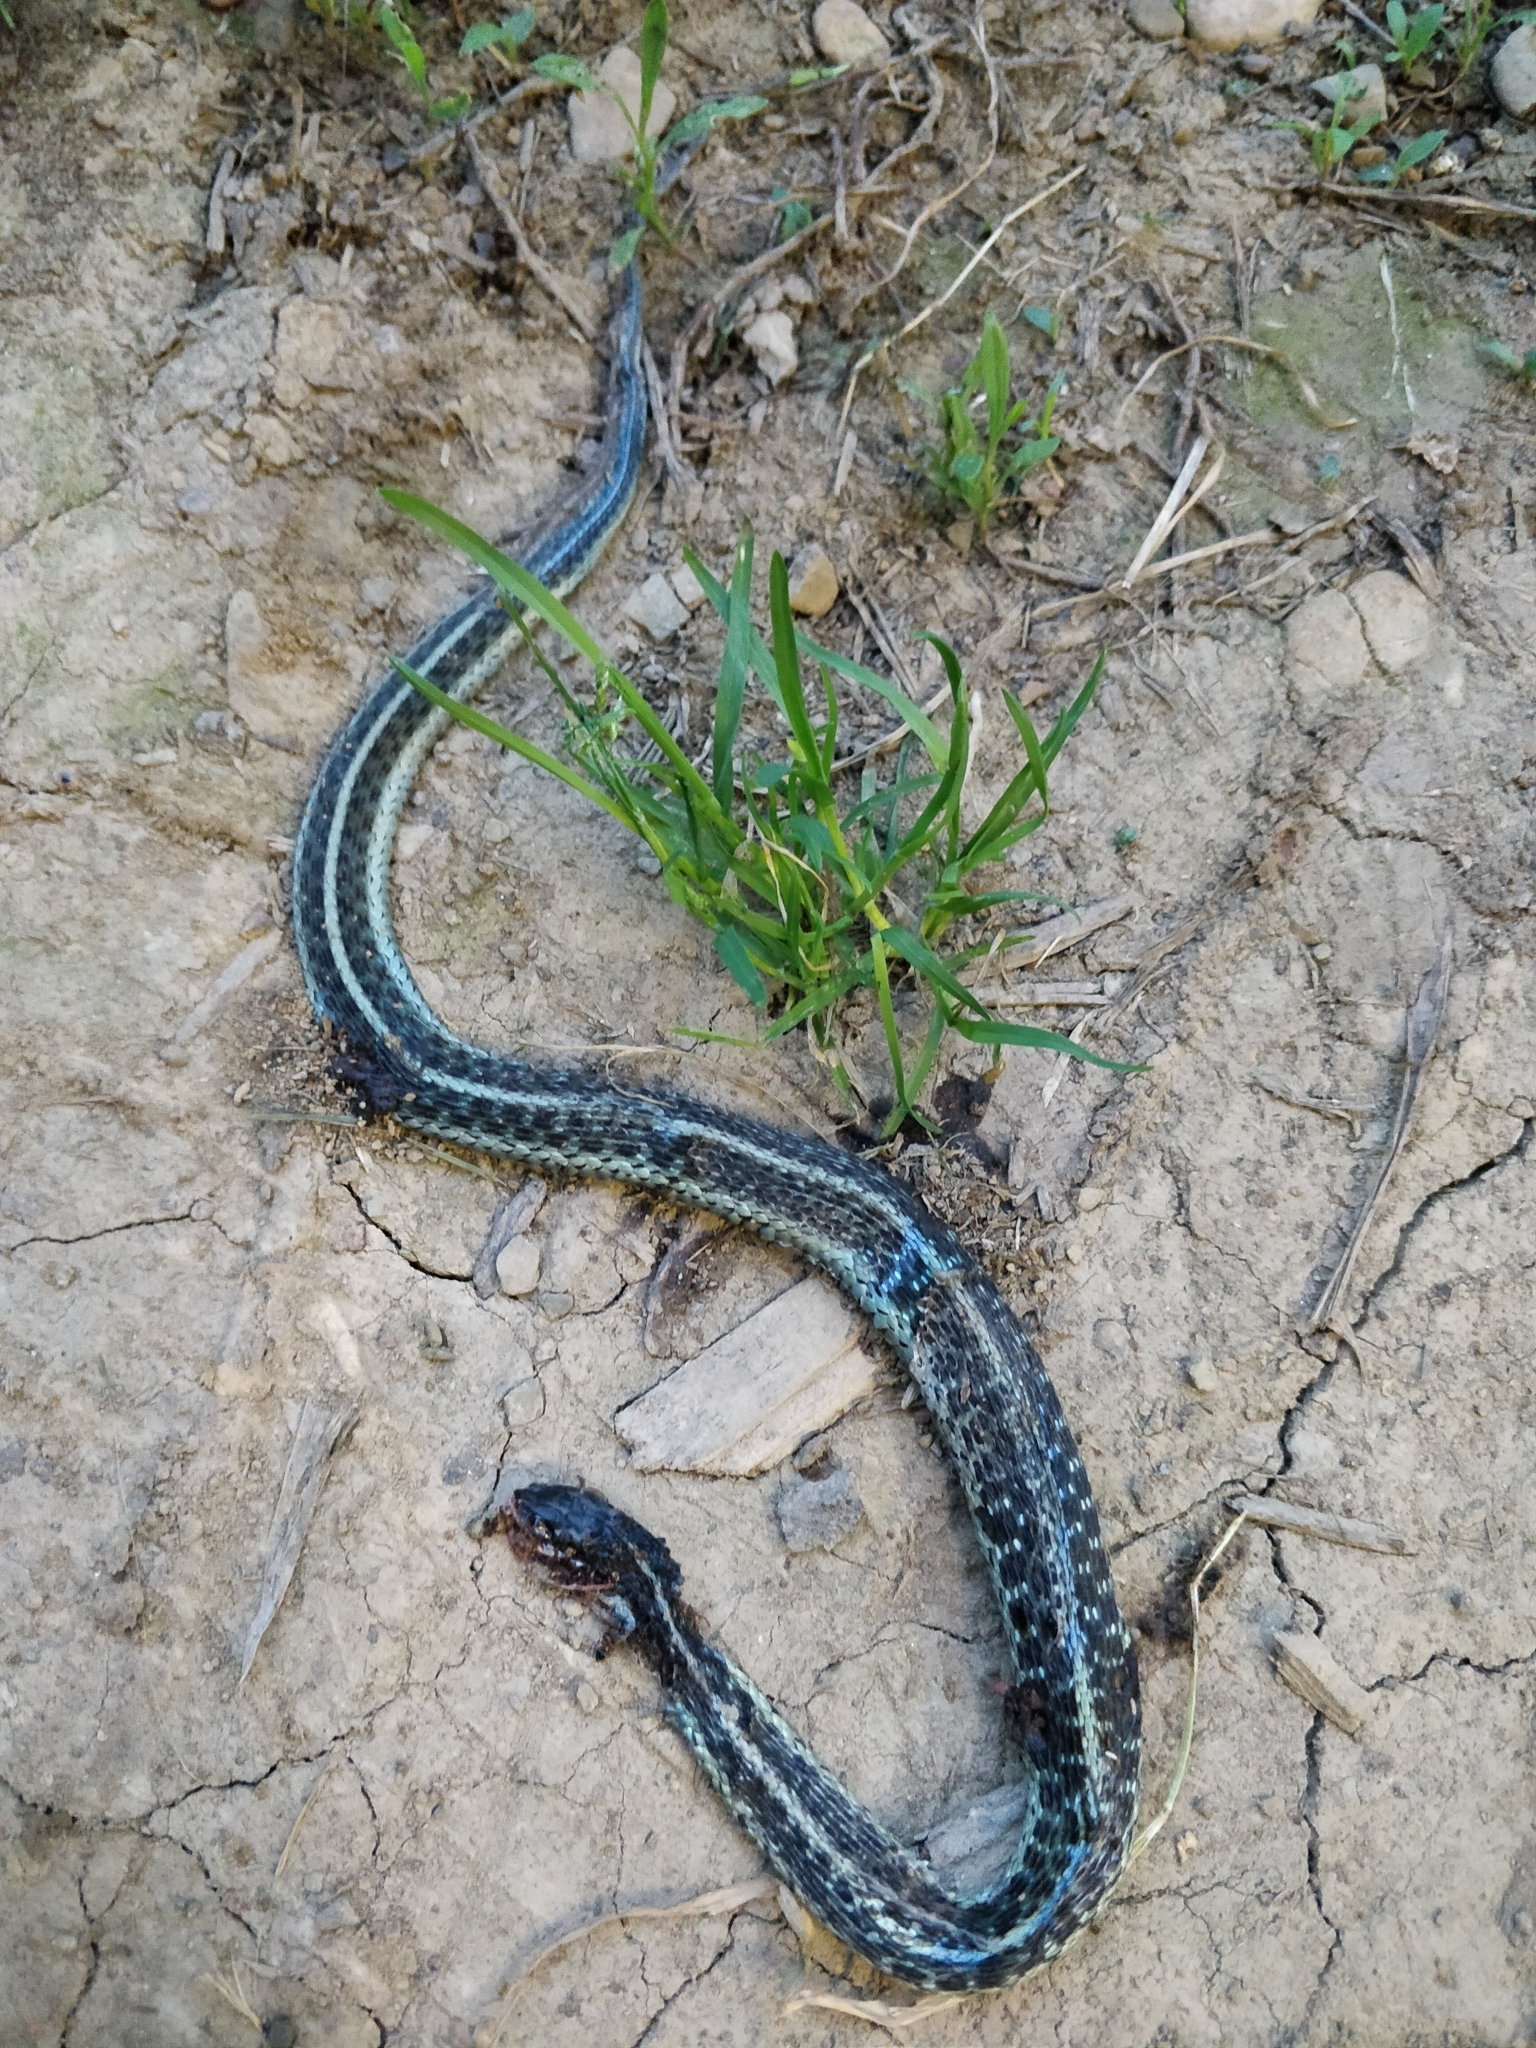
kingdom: Animalia
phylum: Chordata
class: Squamata
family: Colubridae
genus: Thamnophis
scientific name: Thamnophis sirtalis
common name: Common garter snake
